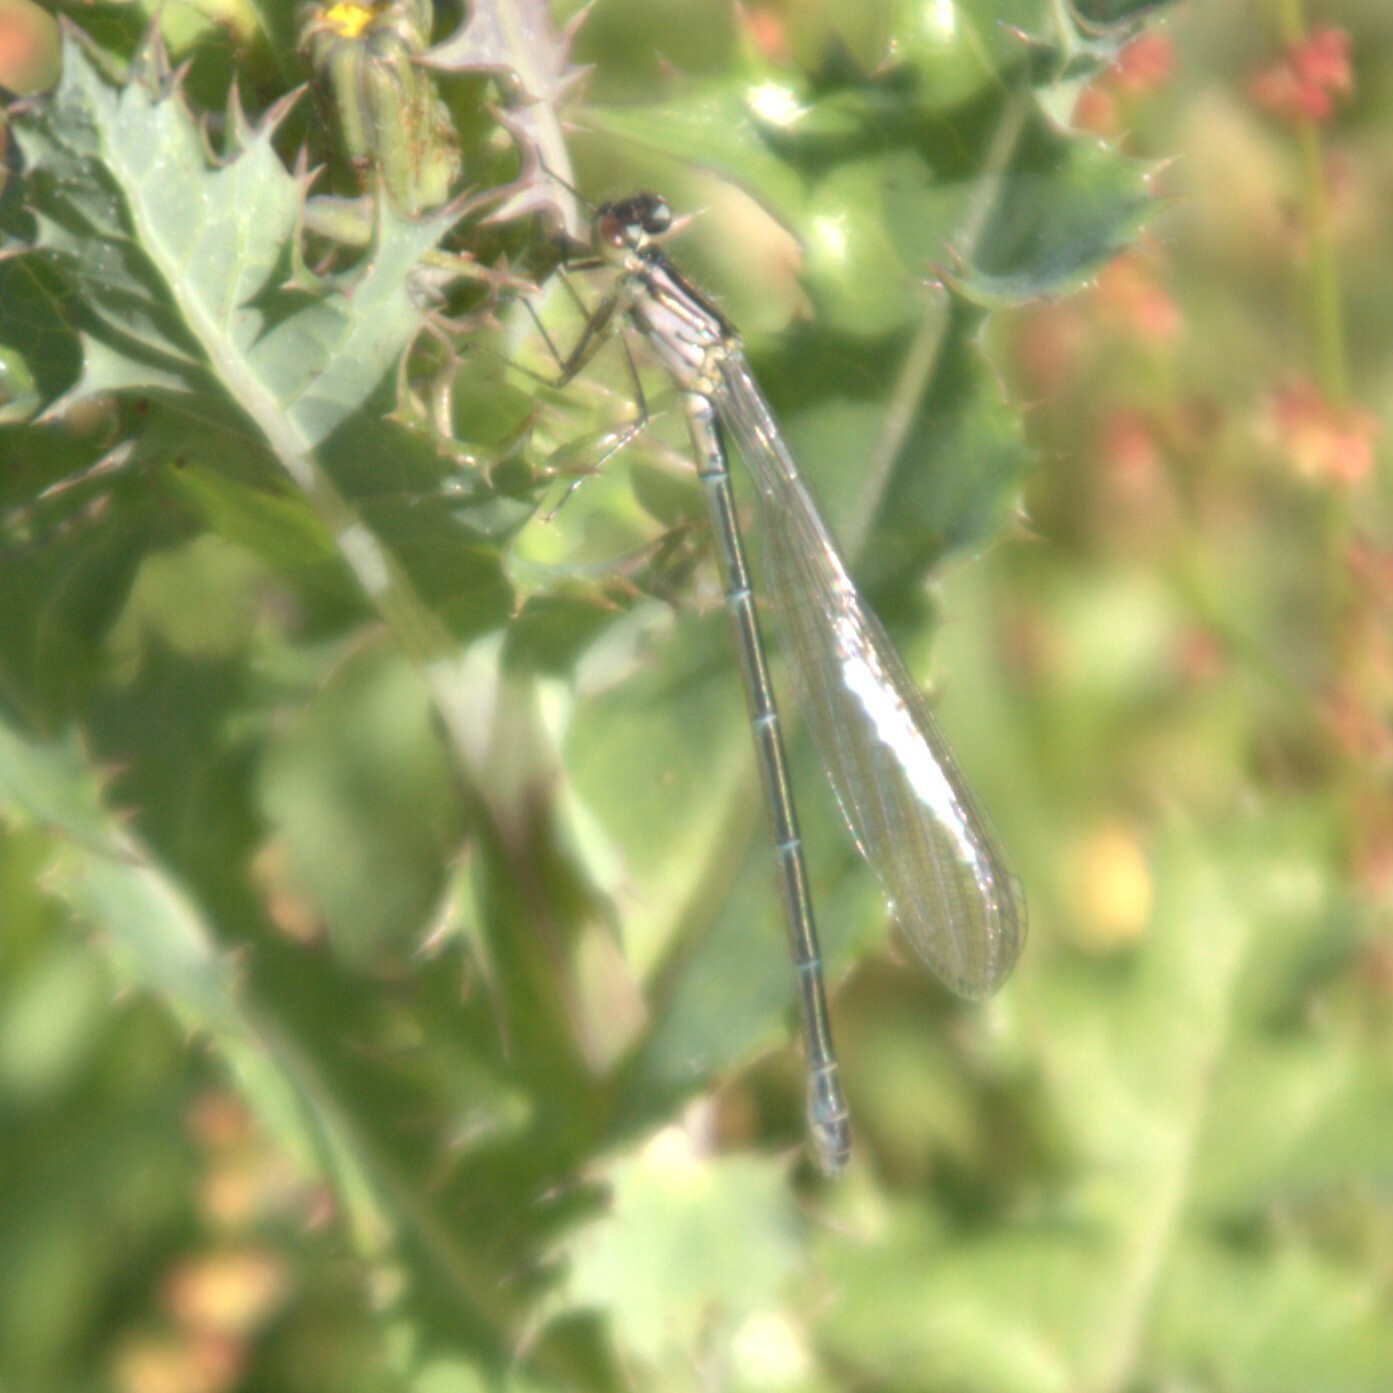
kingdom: Animalia
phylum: Arthropoda
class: Insecta
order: Odonata
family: Coenagrionidae
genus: Coenagrion
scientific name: Coenagrion puella
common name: Azure damselfly
